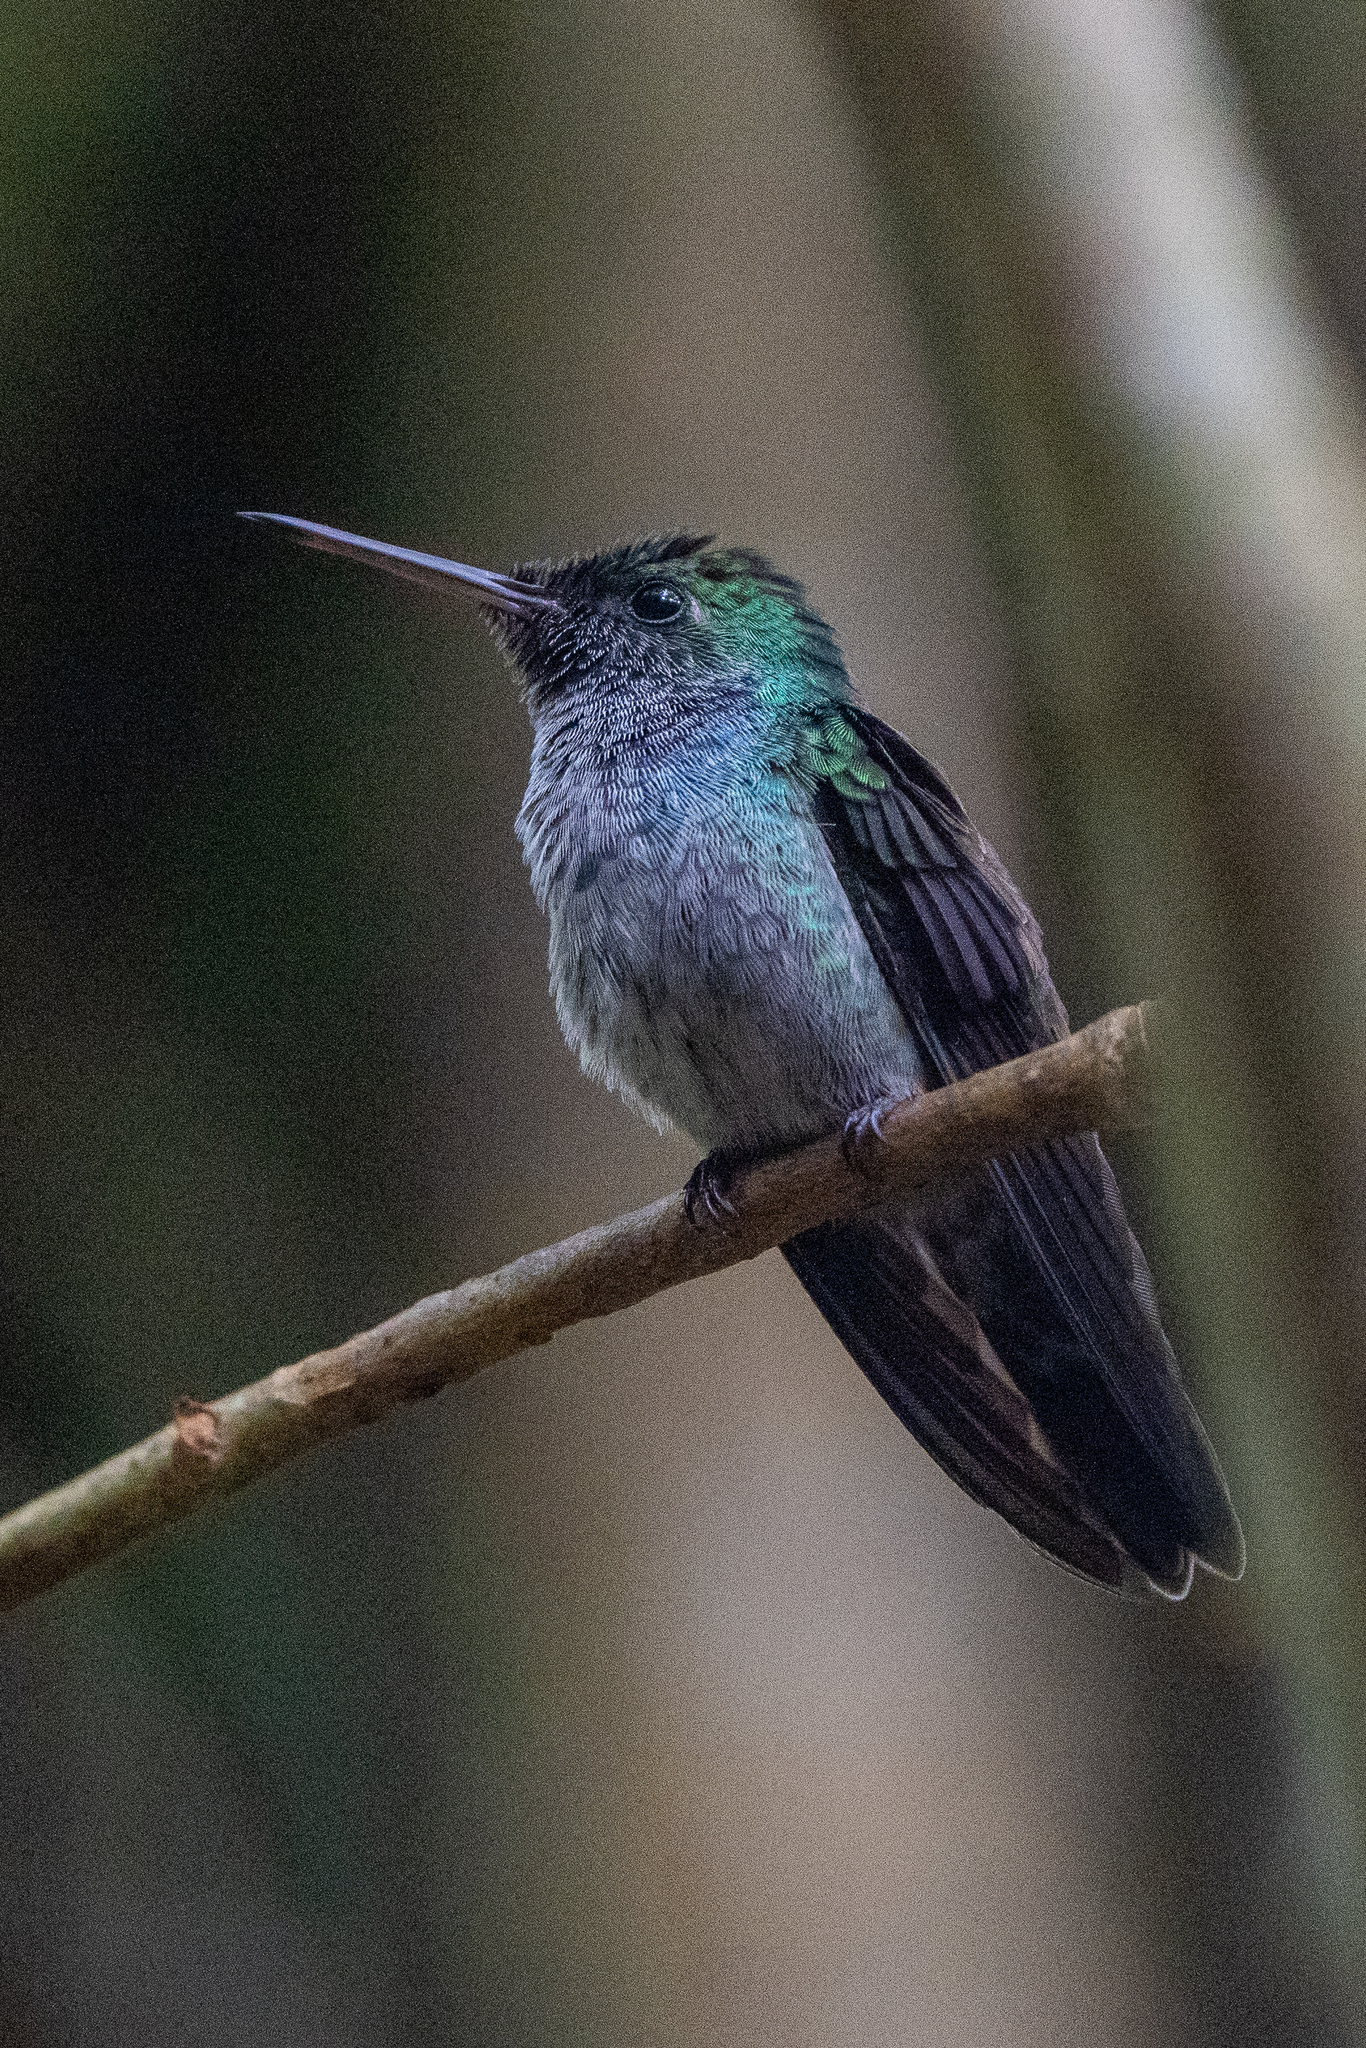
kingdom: Animalia
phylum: Chordata
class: Aves
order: Apodiformes
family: Trochilidae
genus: Polyerata
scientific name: Polyerata amabilis
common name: Blue-chested hummingbird
